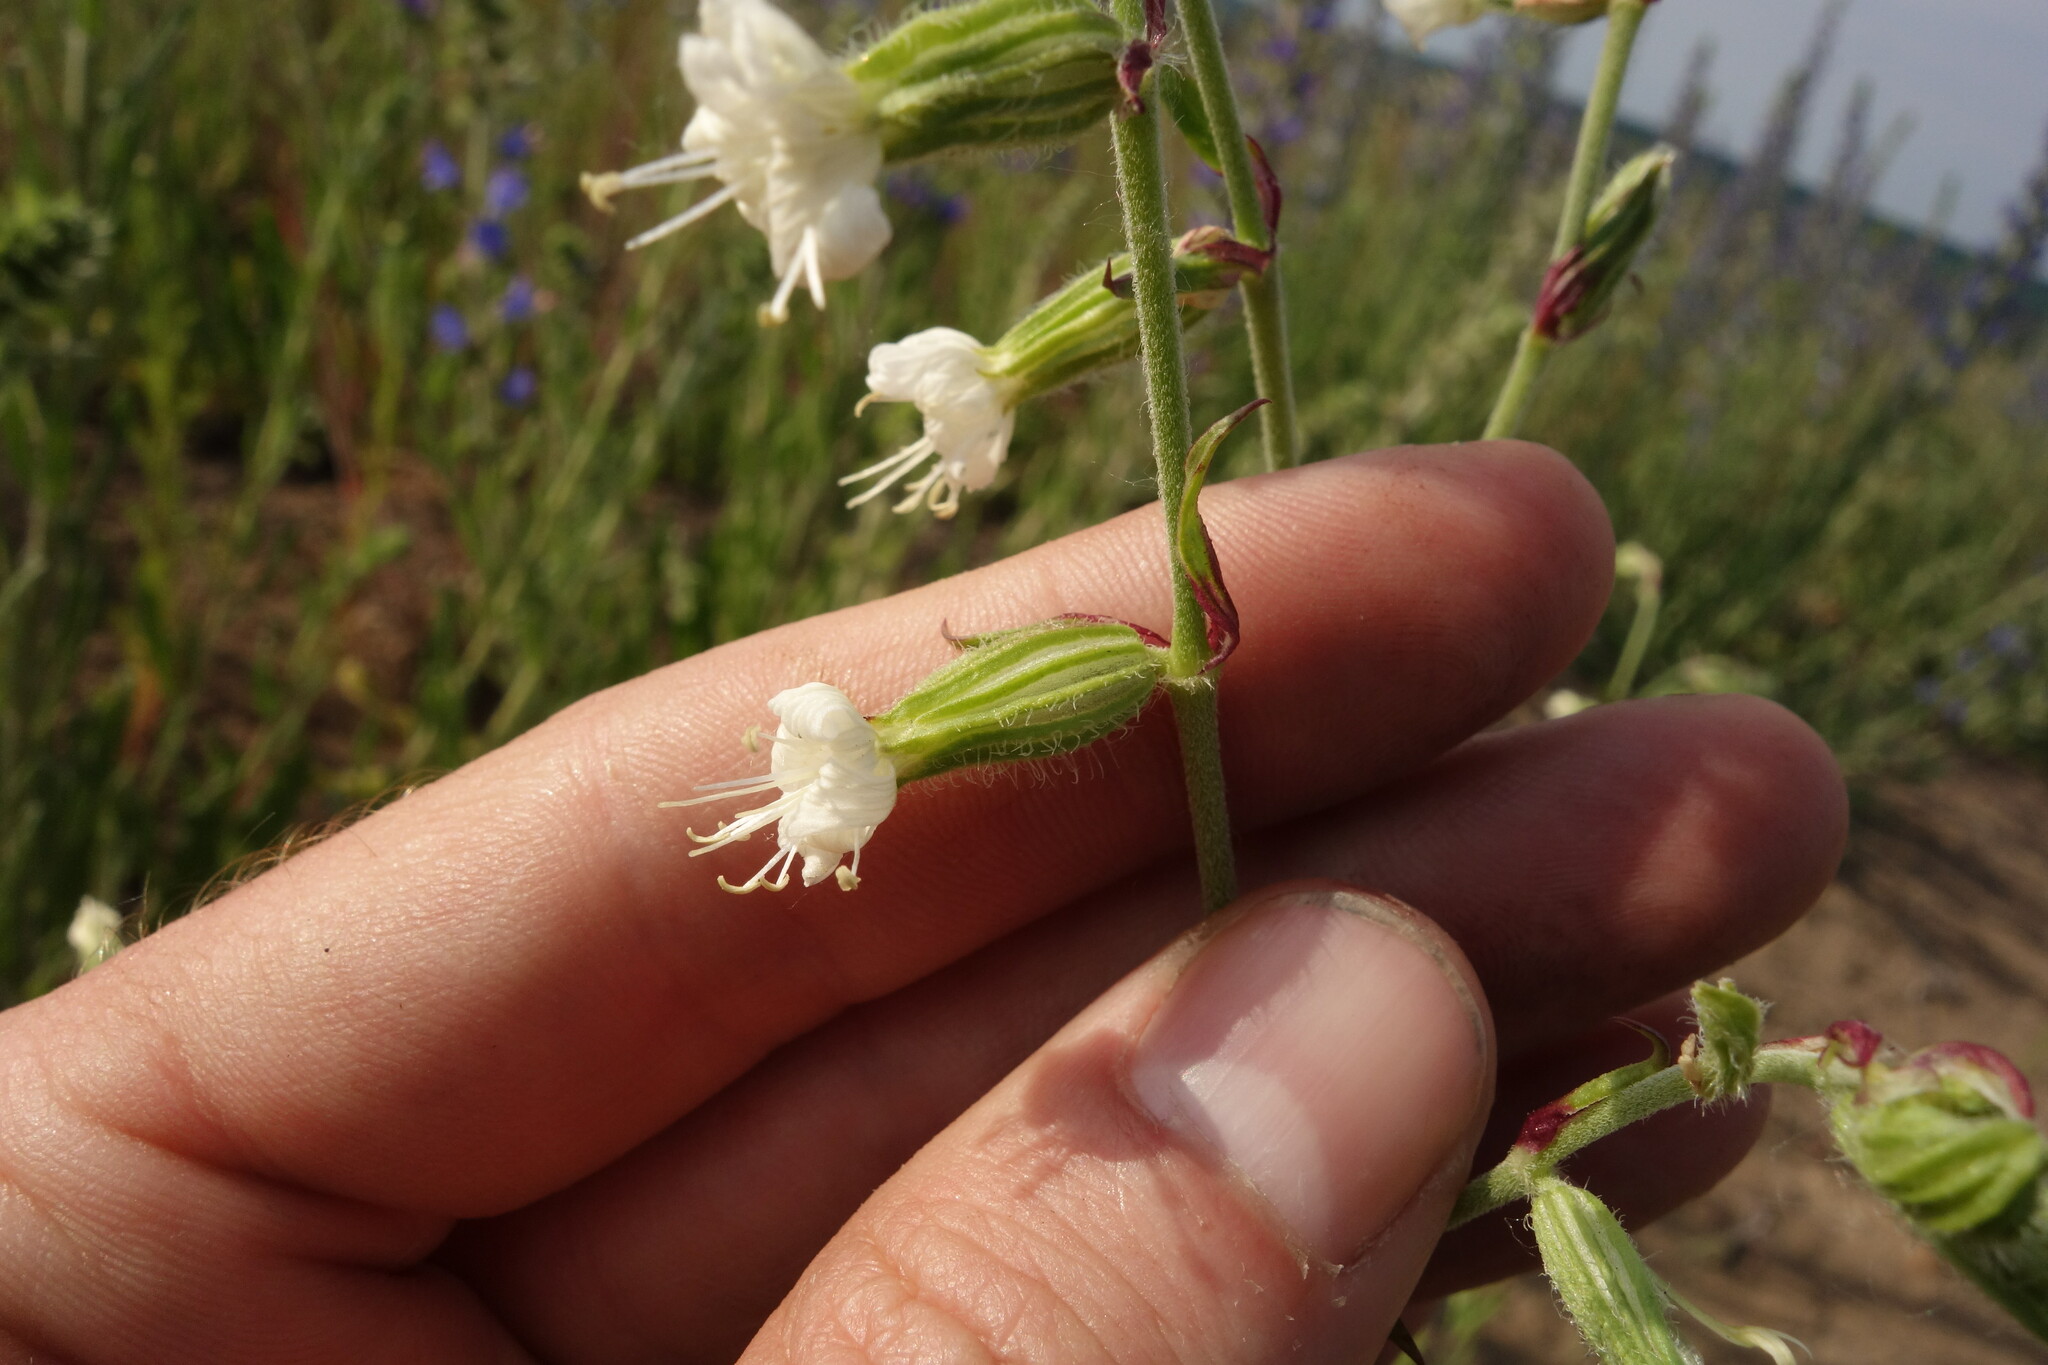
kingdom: Plantae
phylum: Tracheophyta
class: Magnoliopsida
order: Caryophyllales
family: Caryophyllaceae
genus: Silene
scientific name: Silene dichotoma
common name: Forked catchfly
